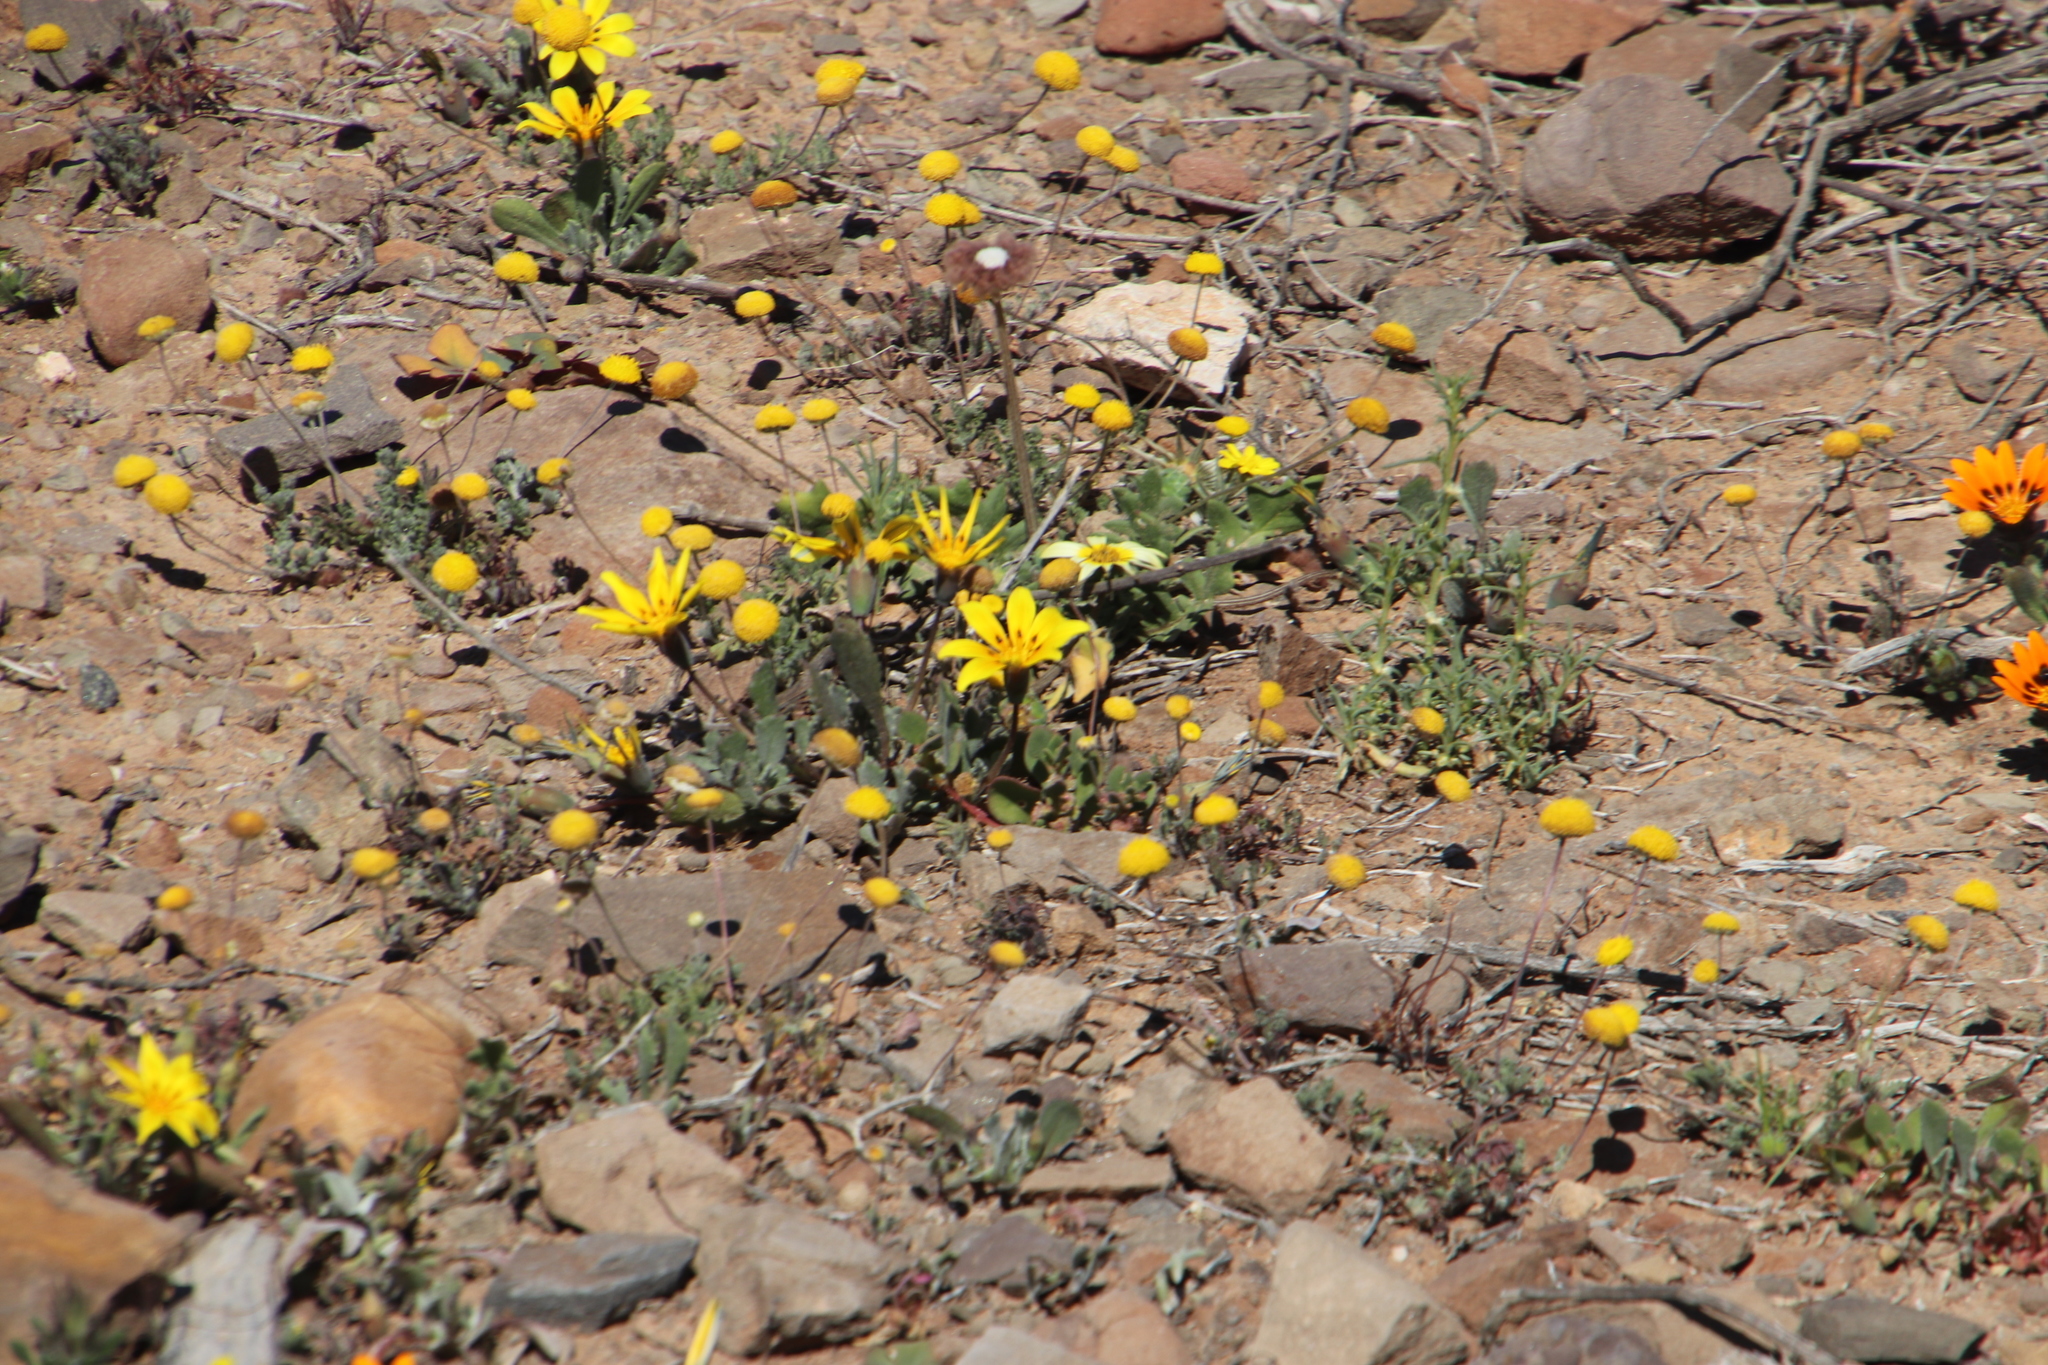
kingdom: Plantae
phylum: Tracheophyta
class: Magnoliopsida
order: Asterales
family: Asteraceae
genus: Gazania
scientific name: Gazania lichtensteinii
